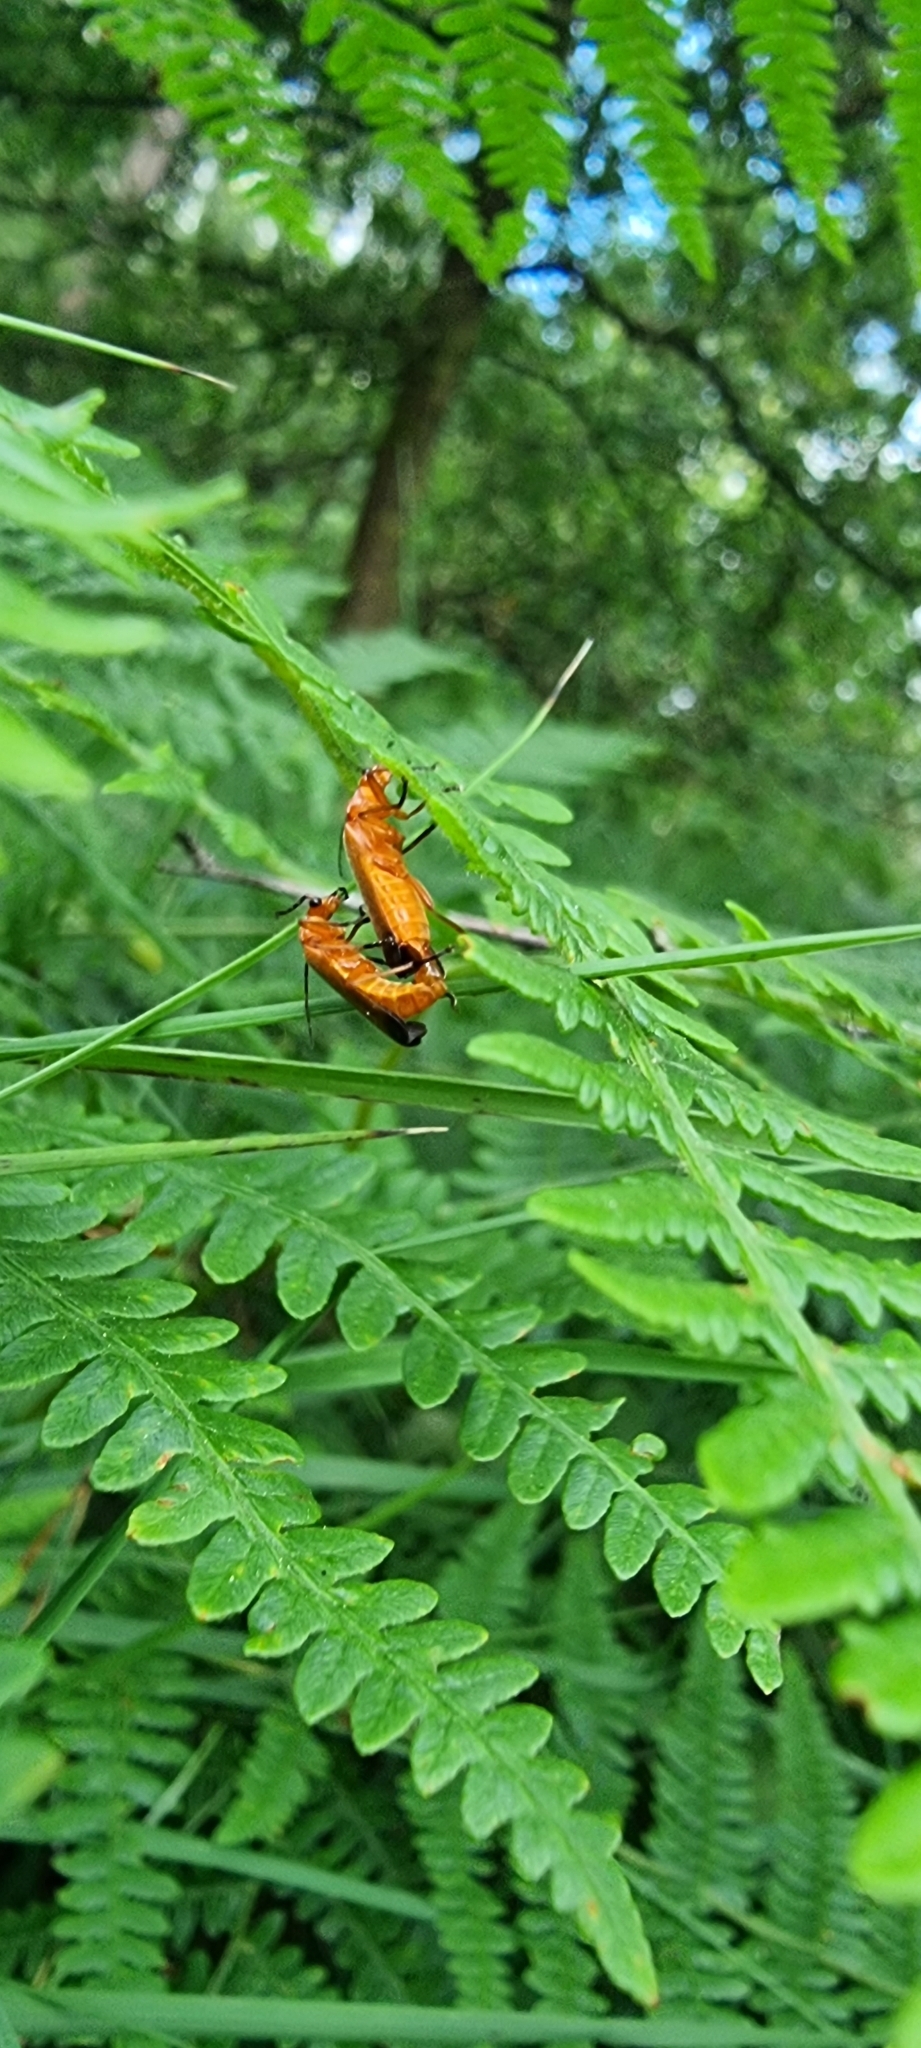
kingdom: Animalia
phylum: Arthropoda
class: Insecta
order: Coleoptera
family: Cantharidae
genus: Rhagonycha
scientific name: Rhagonycha fulva
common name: Common red soldier beetle
